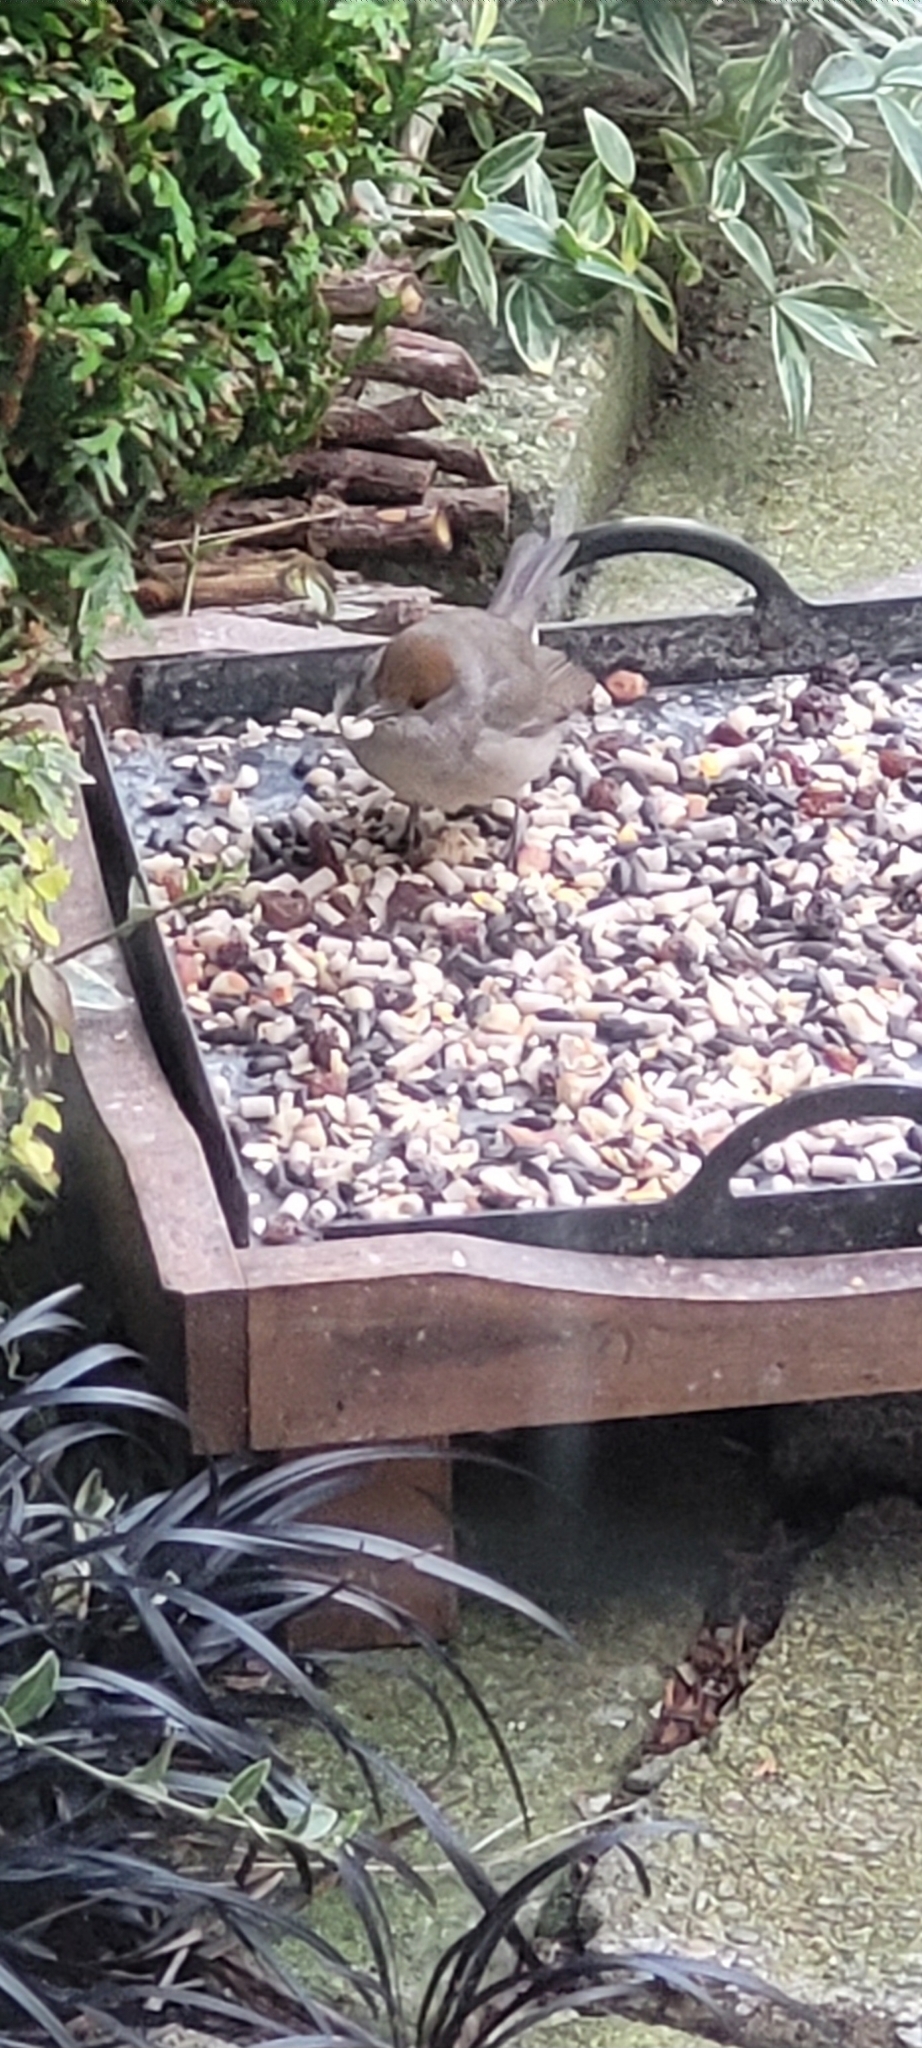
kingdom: Animalia
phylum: Chordata
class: Aves
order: Passeriformes
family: Sylviidae
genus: Sylvia
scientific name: Sylvia atricapilla
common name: Eurasian blackcap
